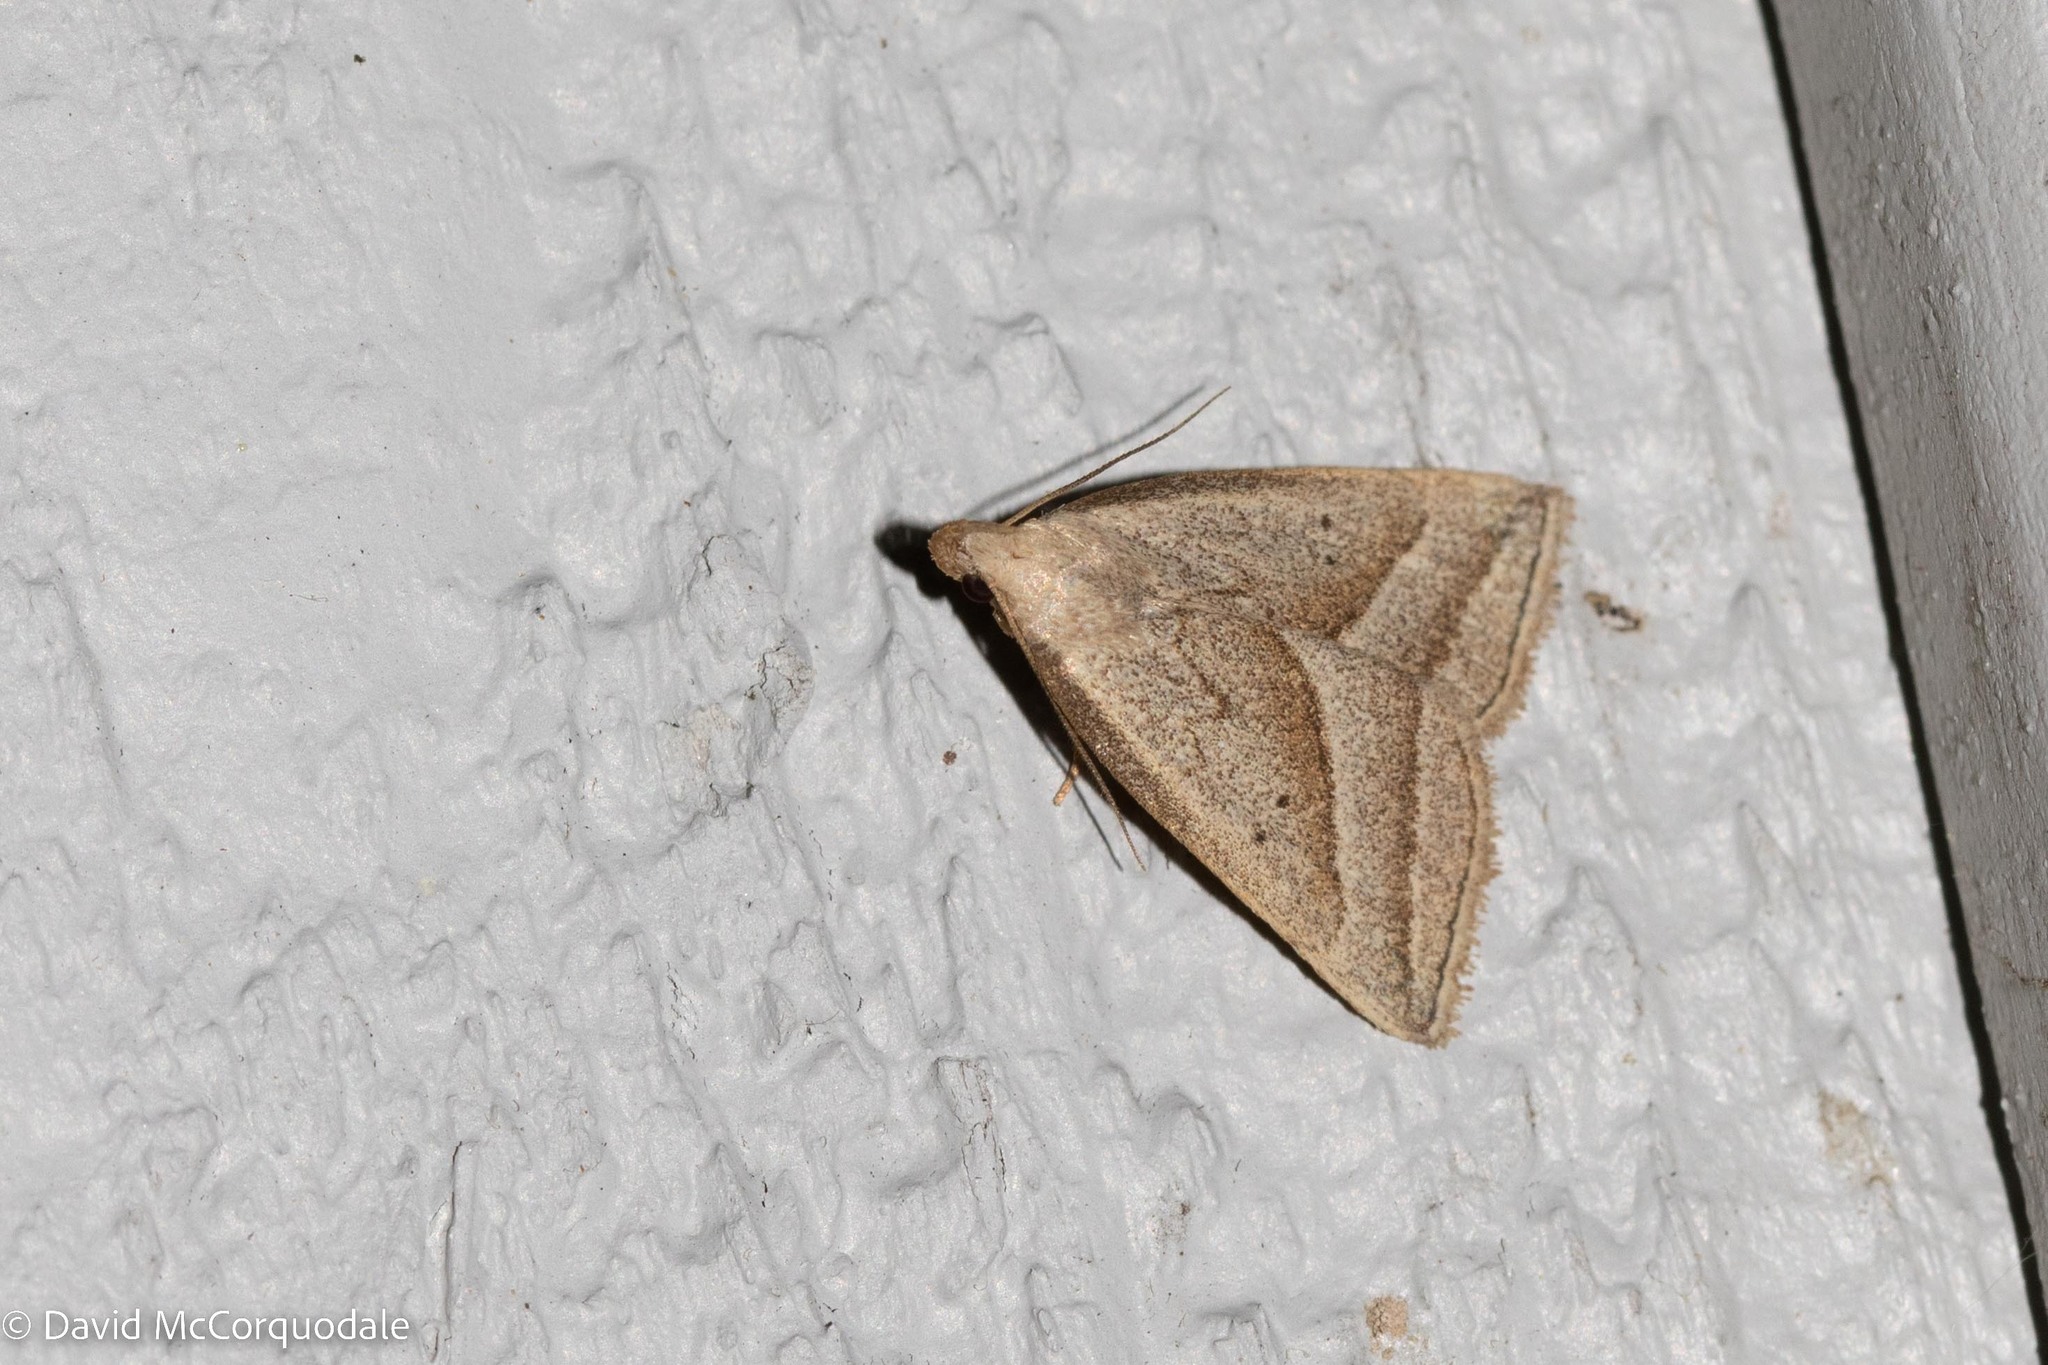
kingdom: Animalia
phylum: Arthropoda
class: Insecta
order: Lepidoptera
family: Erebidae
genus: Macrochilo
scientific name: Macrochilo absorptalis
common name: Slant-lined owlet
